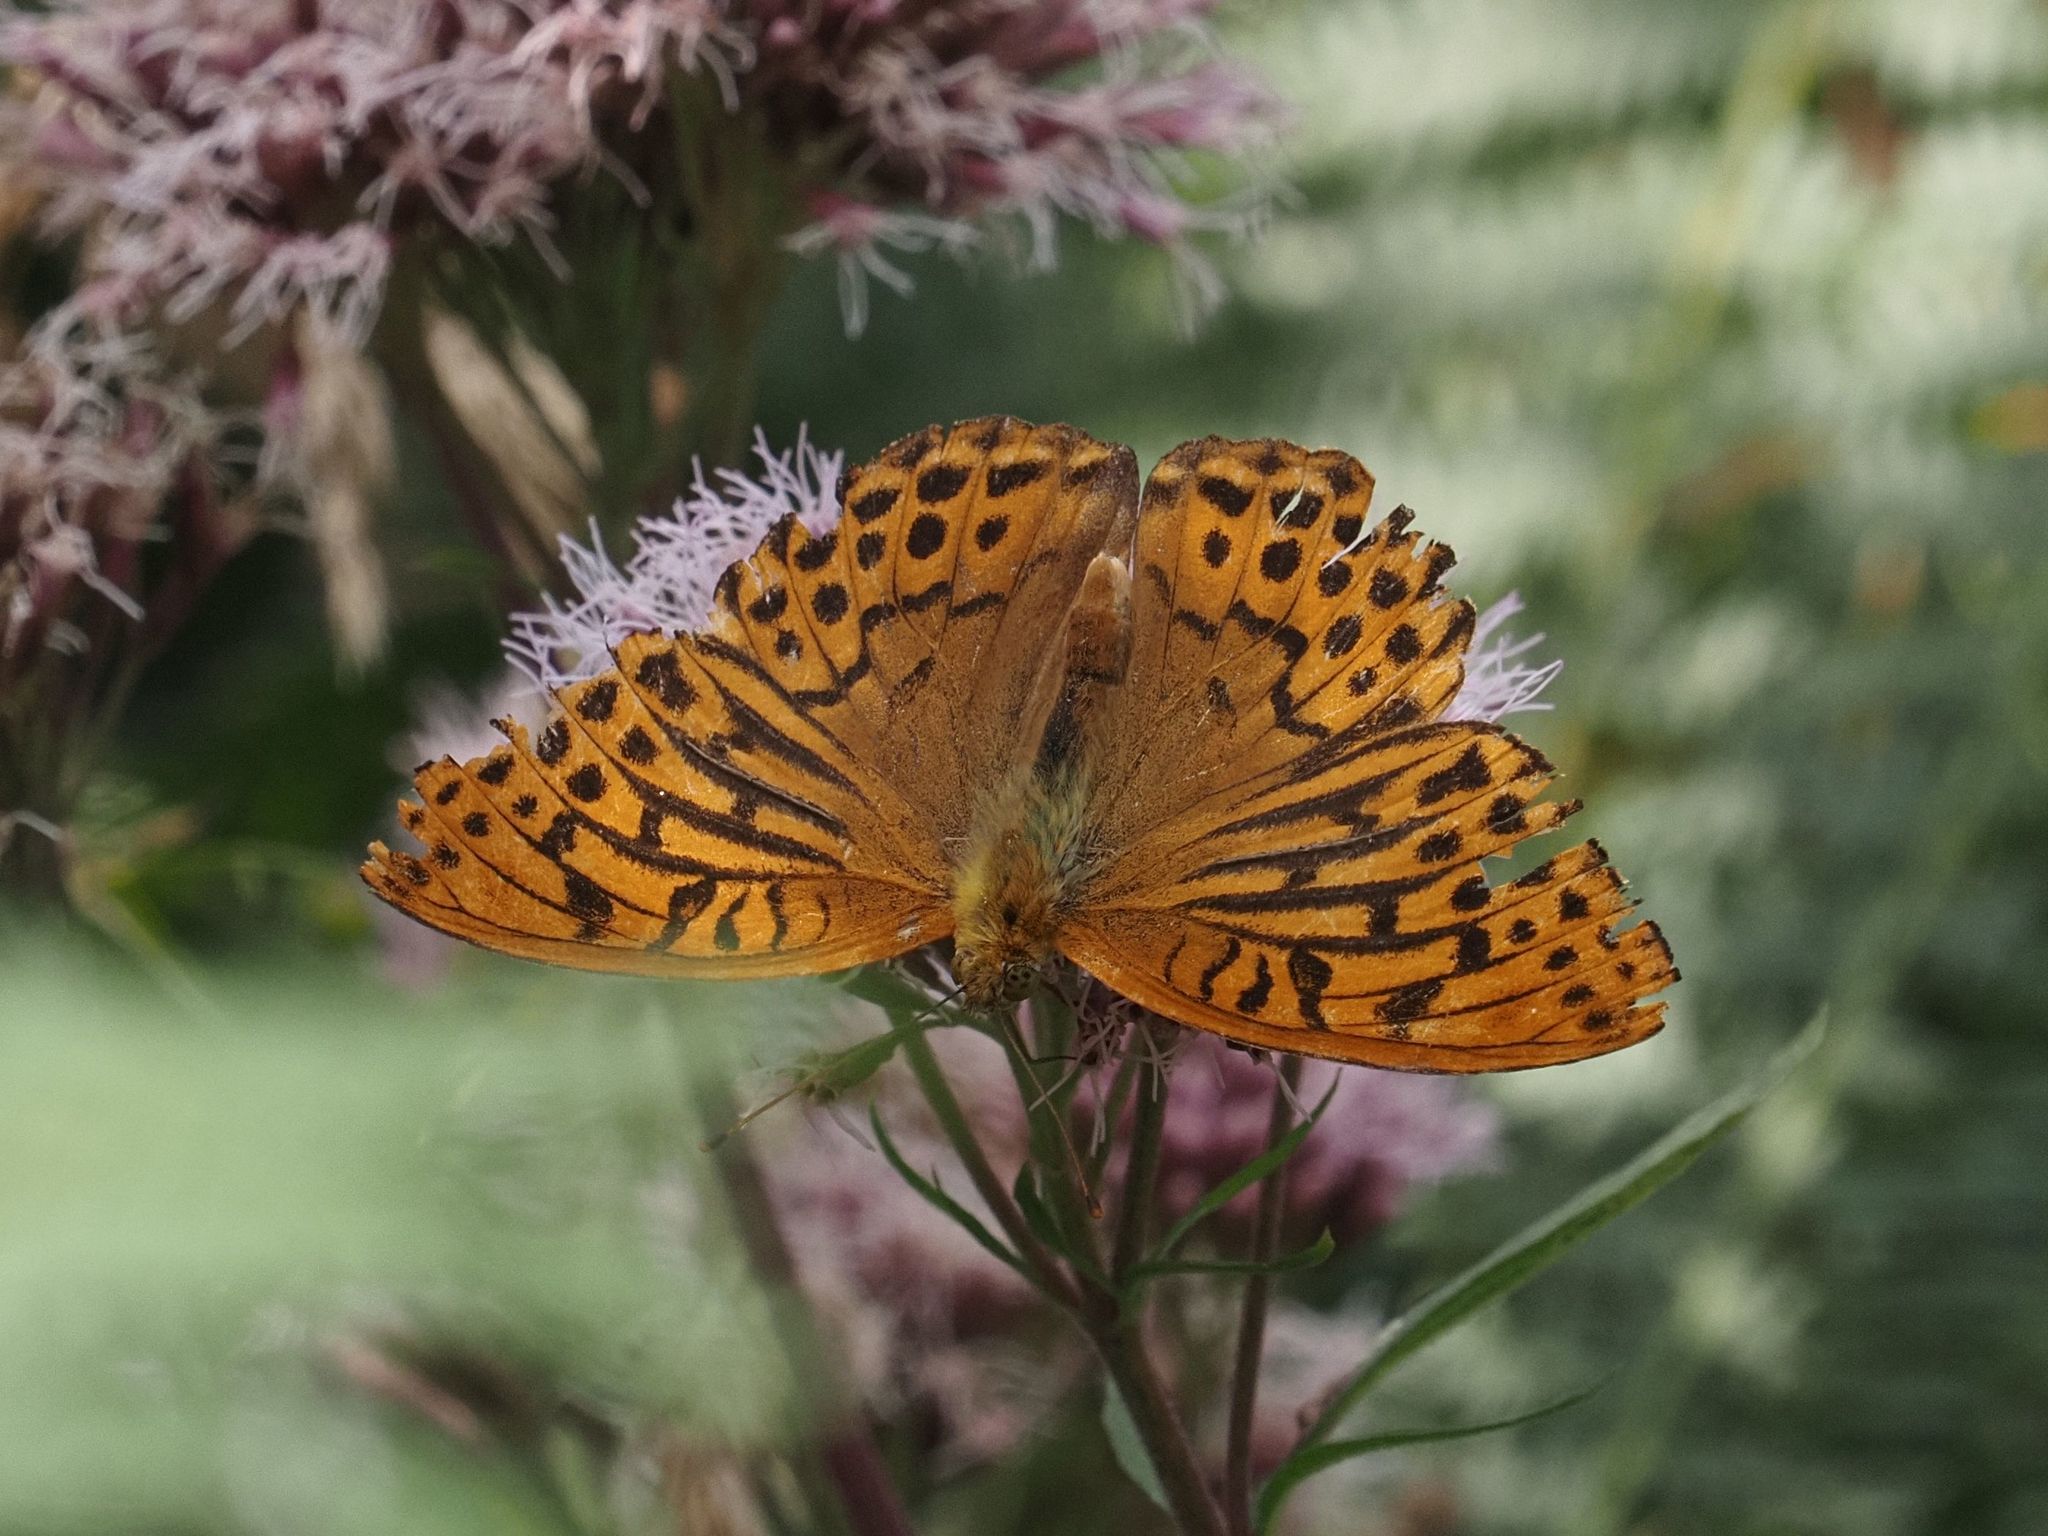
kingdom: Animalia
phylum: Arthropoda
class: Insecta
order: Lepidoptera
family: Nymphalidae
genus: Argynnis
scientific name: Argynnis paphia
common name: Silver-washed fritillary
